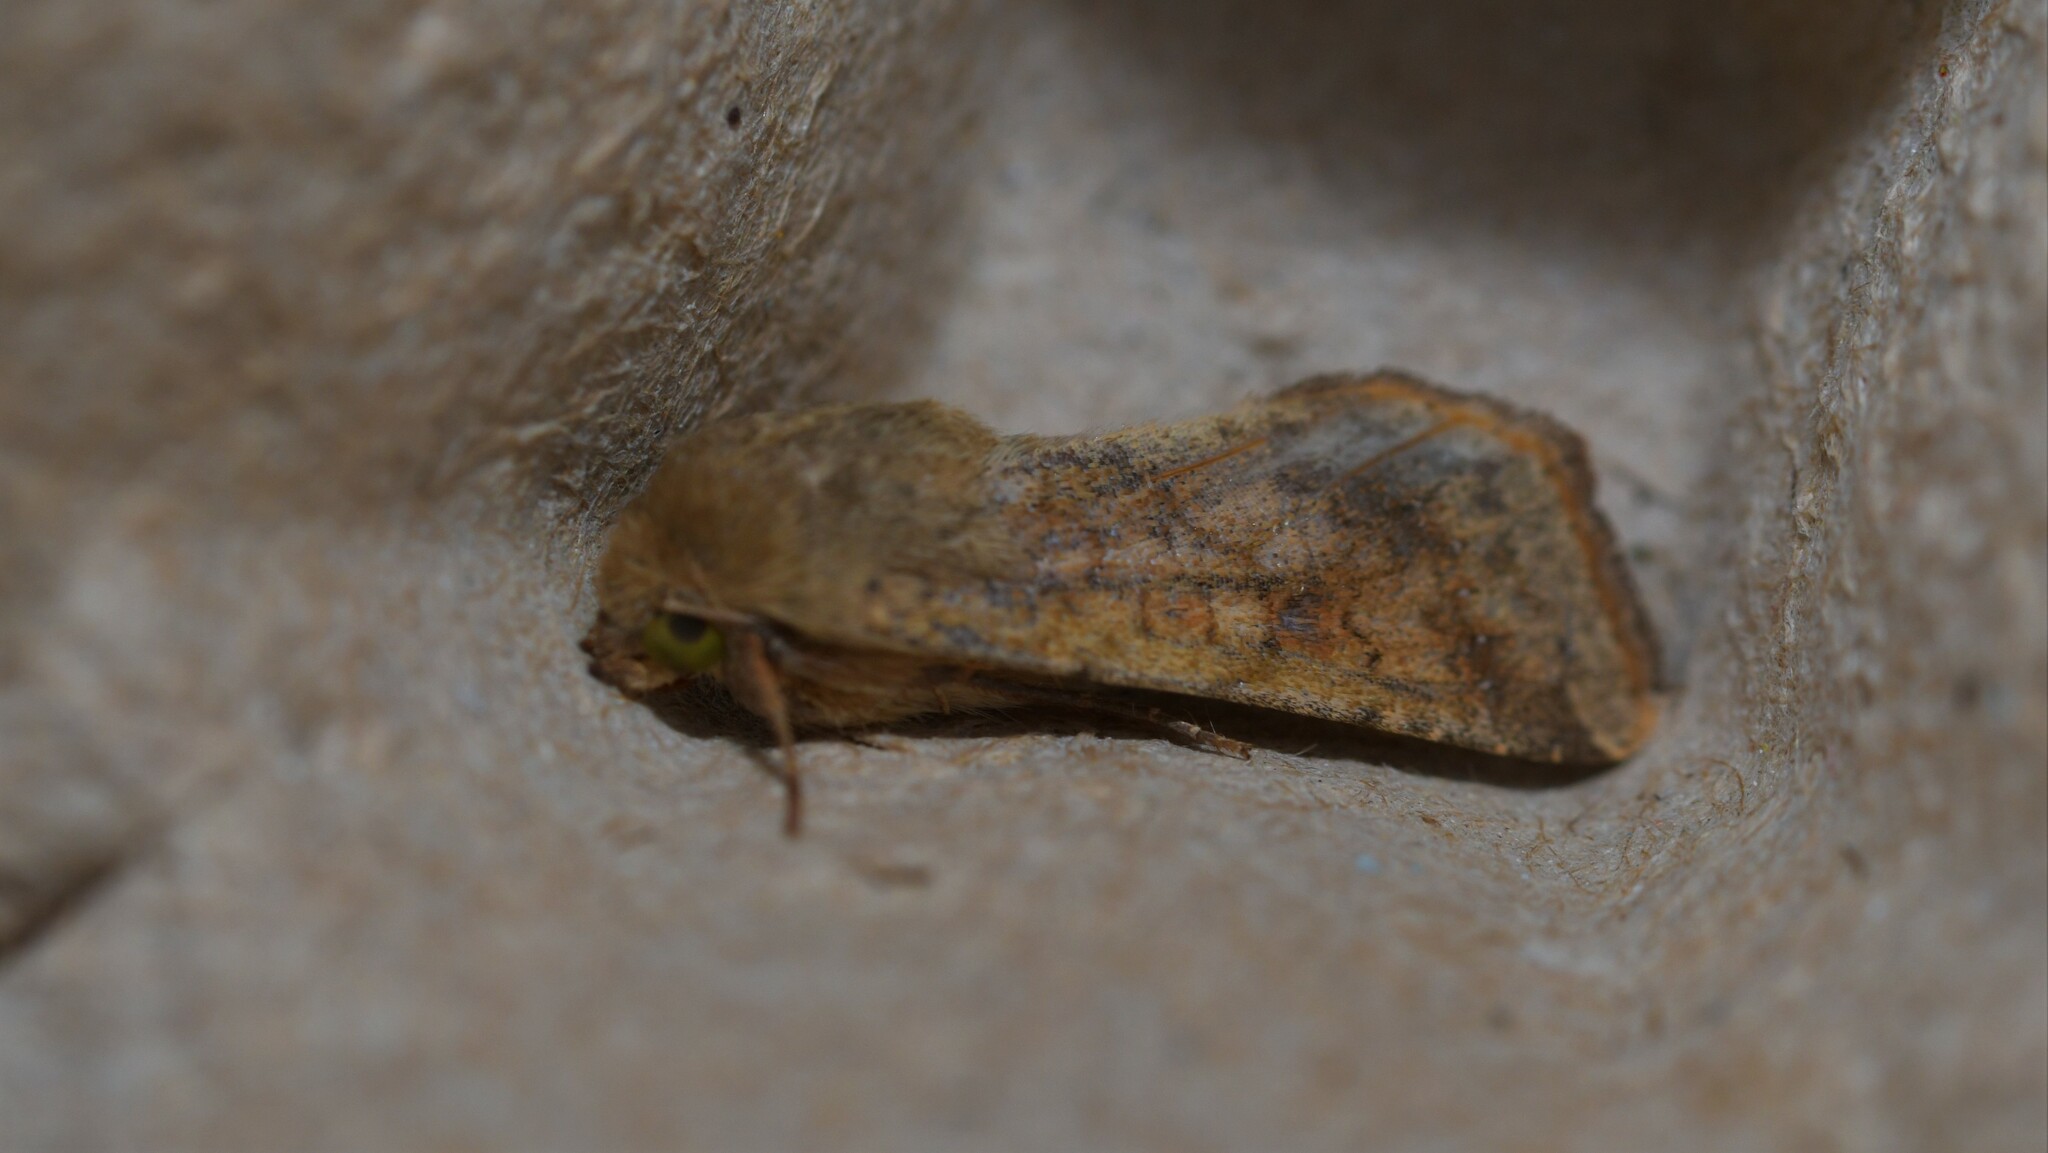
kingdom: Animalia
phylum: Arthropoda
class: Insecta
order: Lepidoptera
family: Noctuidae
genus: Helicoverpa
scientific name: Helicoverpa armigera
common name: Cotton bollworm
